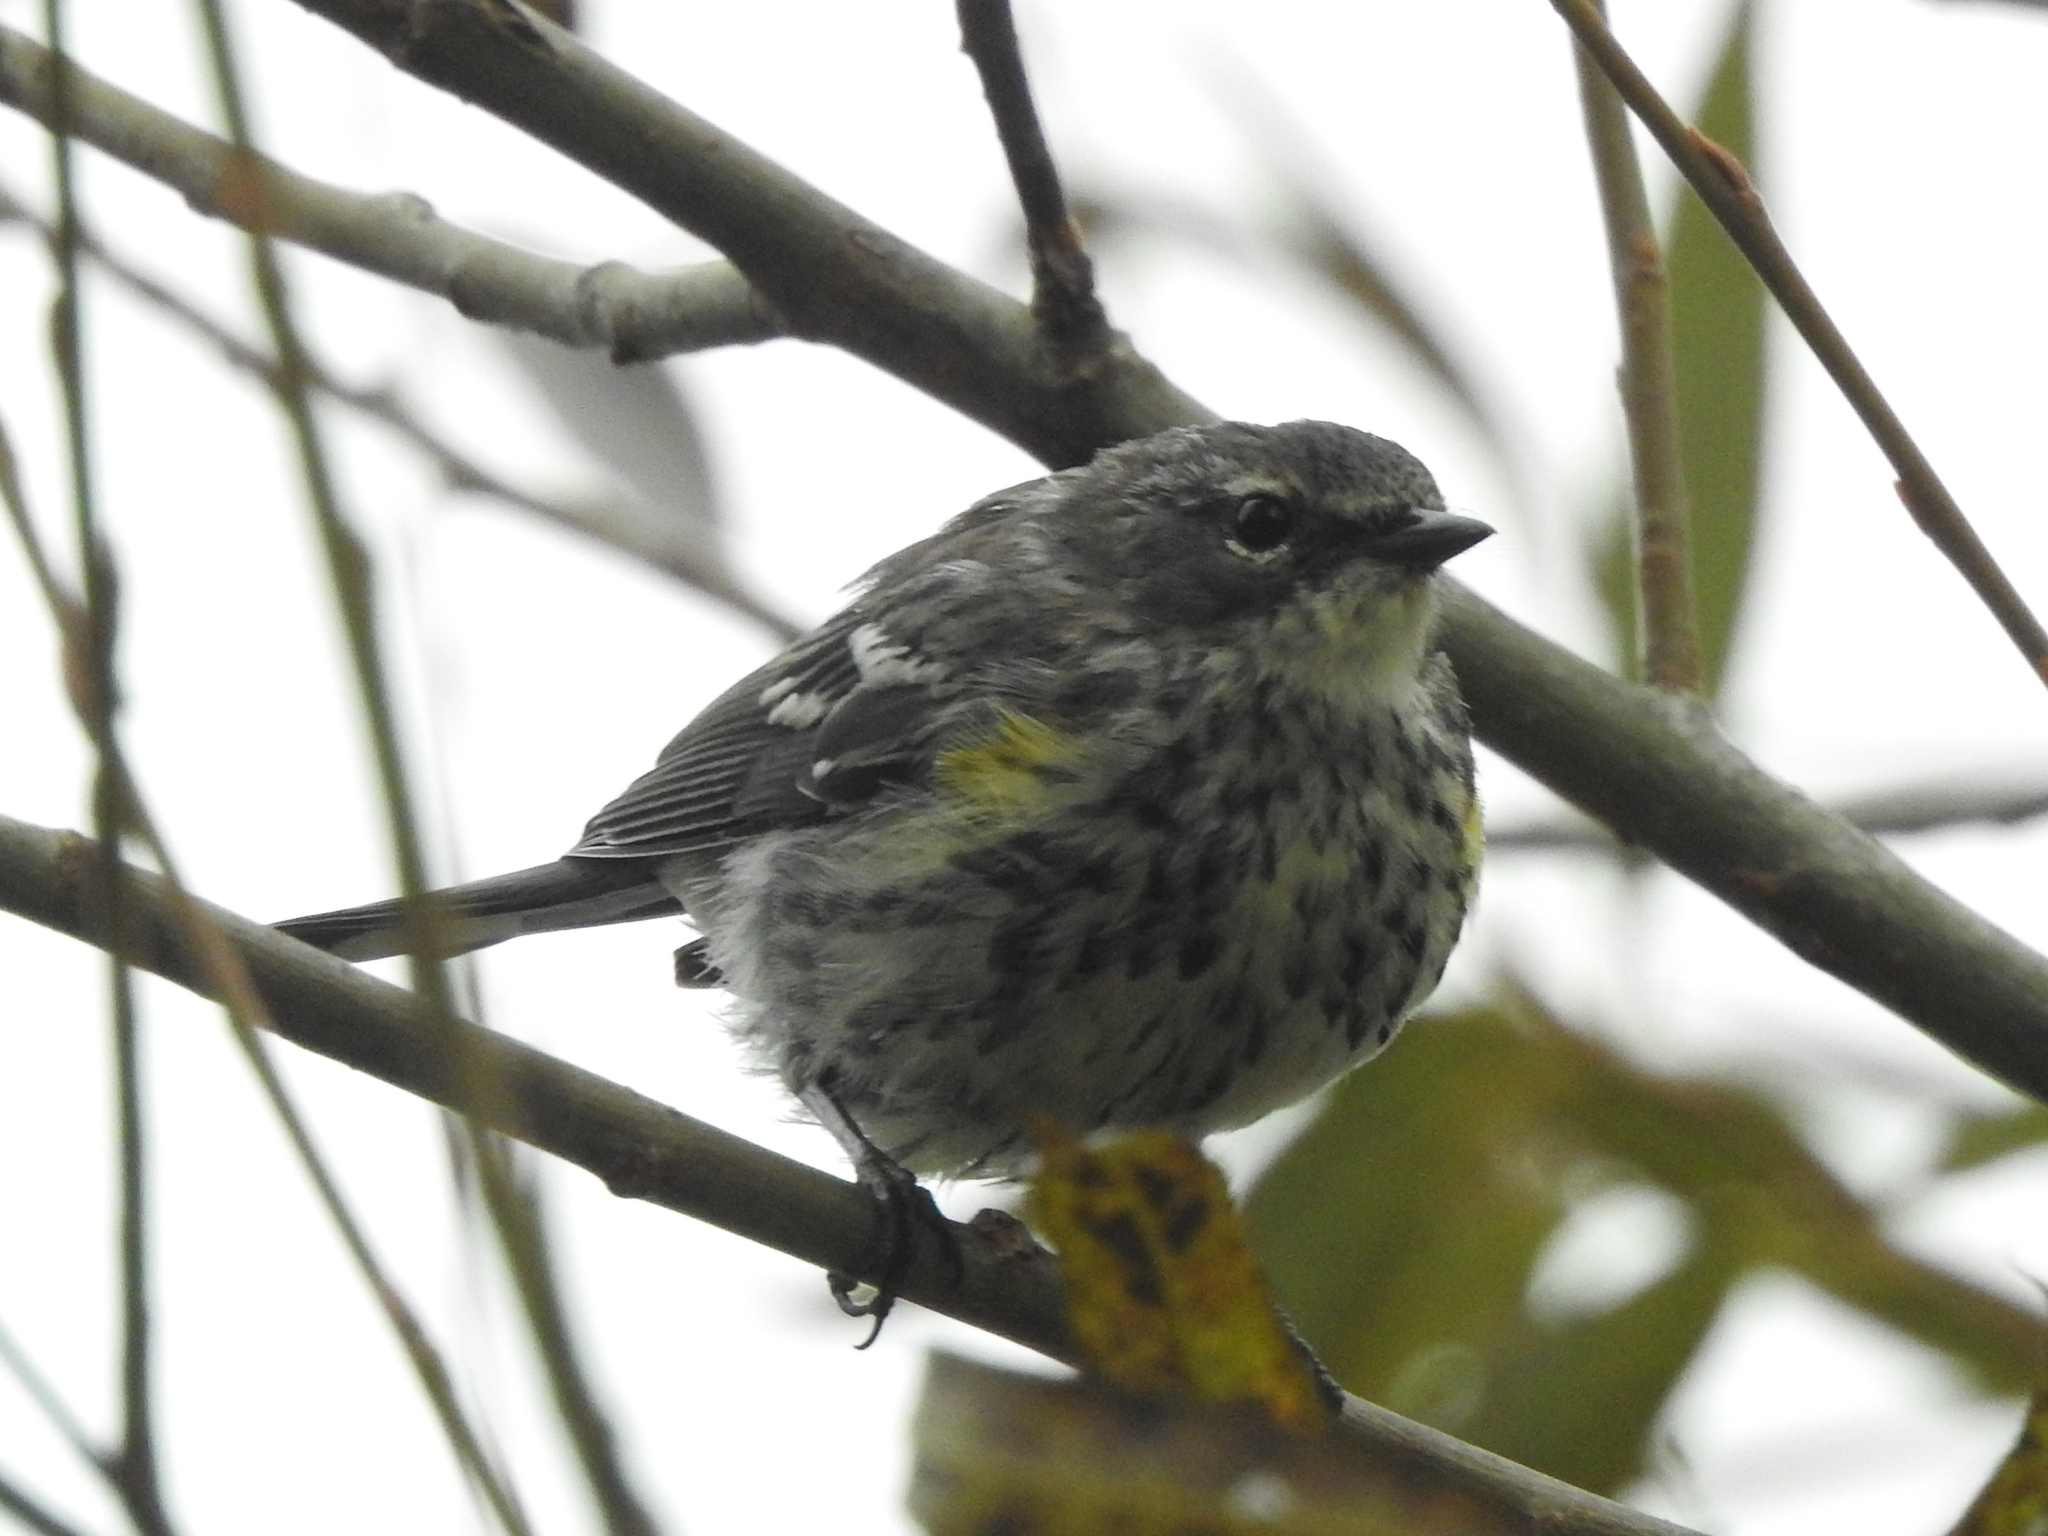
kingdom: Animalia
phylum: Chordata
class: Aves
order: Passeriformes
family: Parulidae
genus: Setophaga
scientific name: Setophaga coronata
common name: Myrtle warbler
